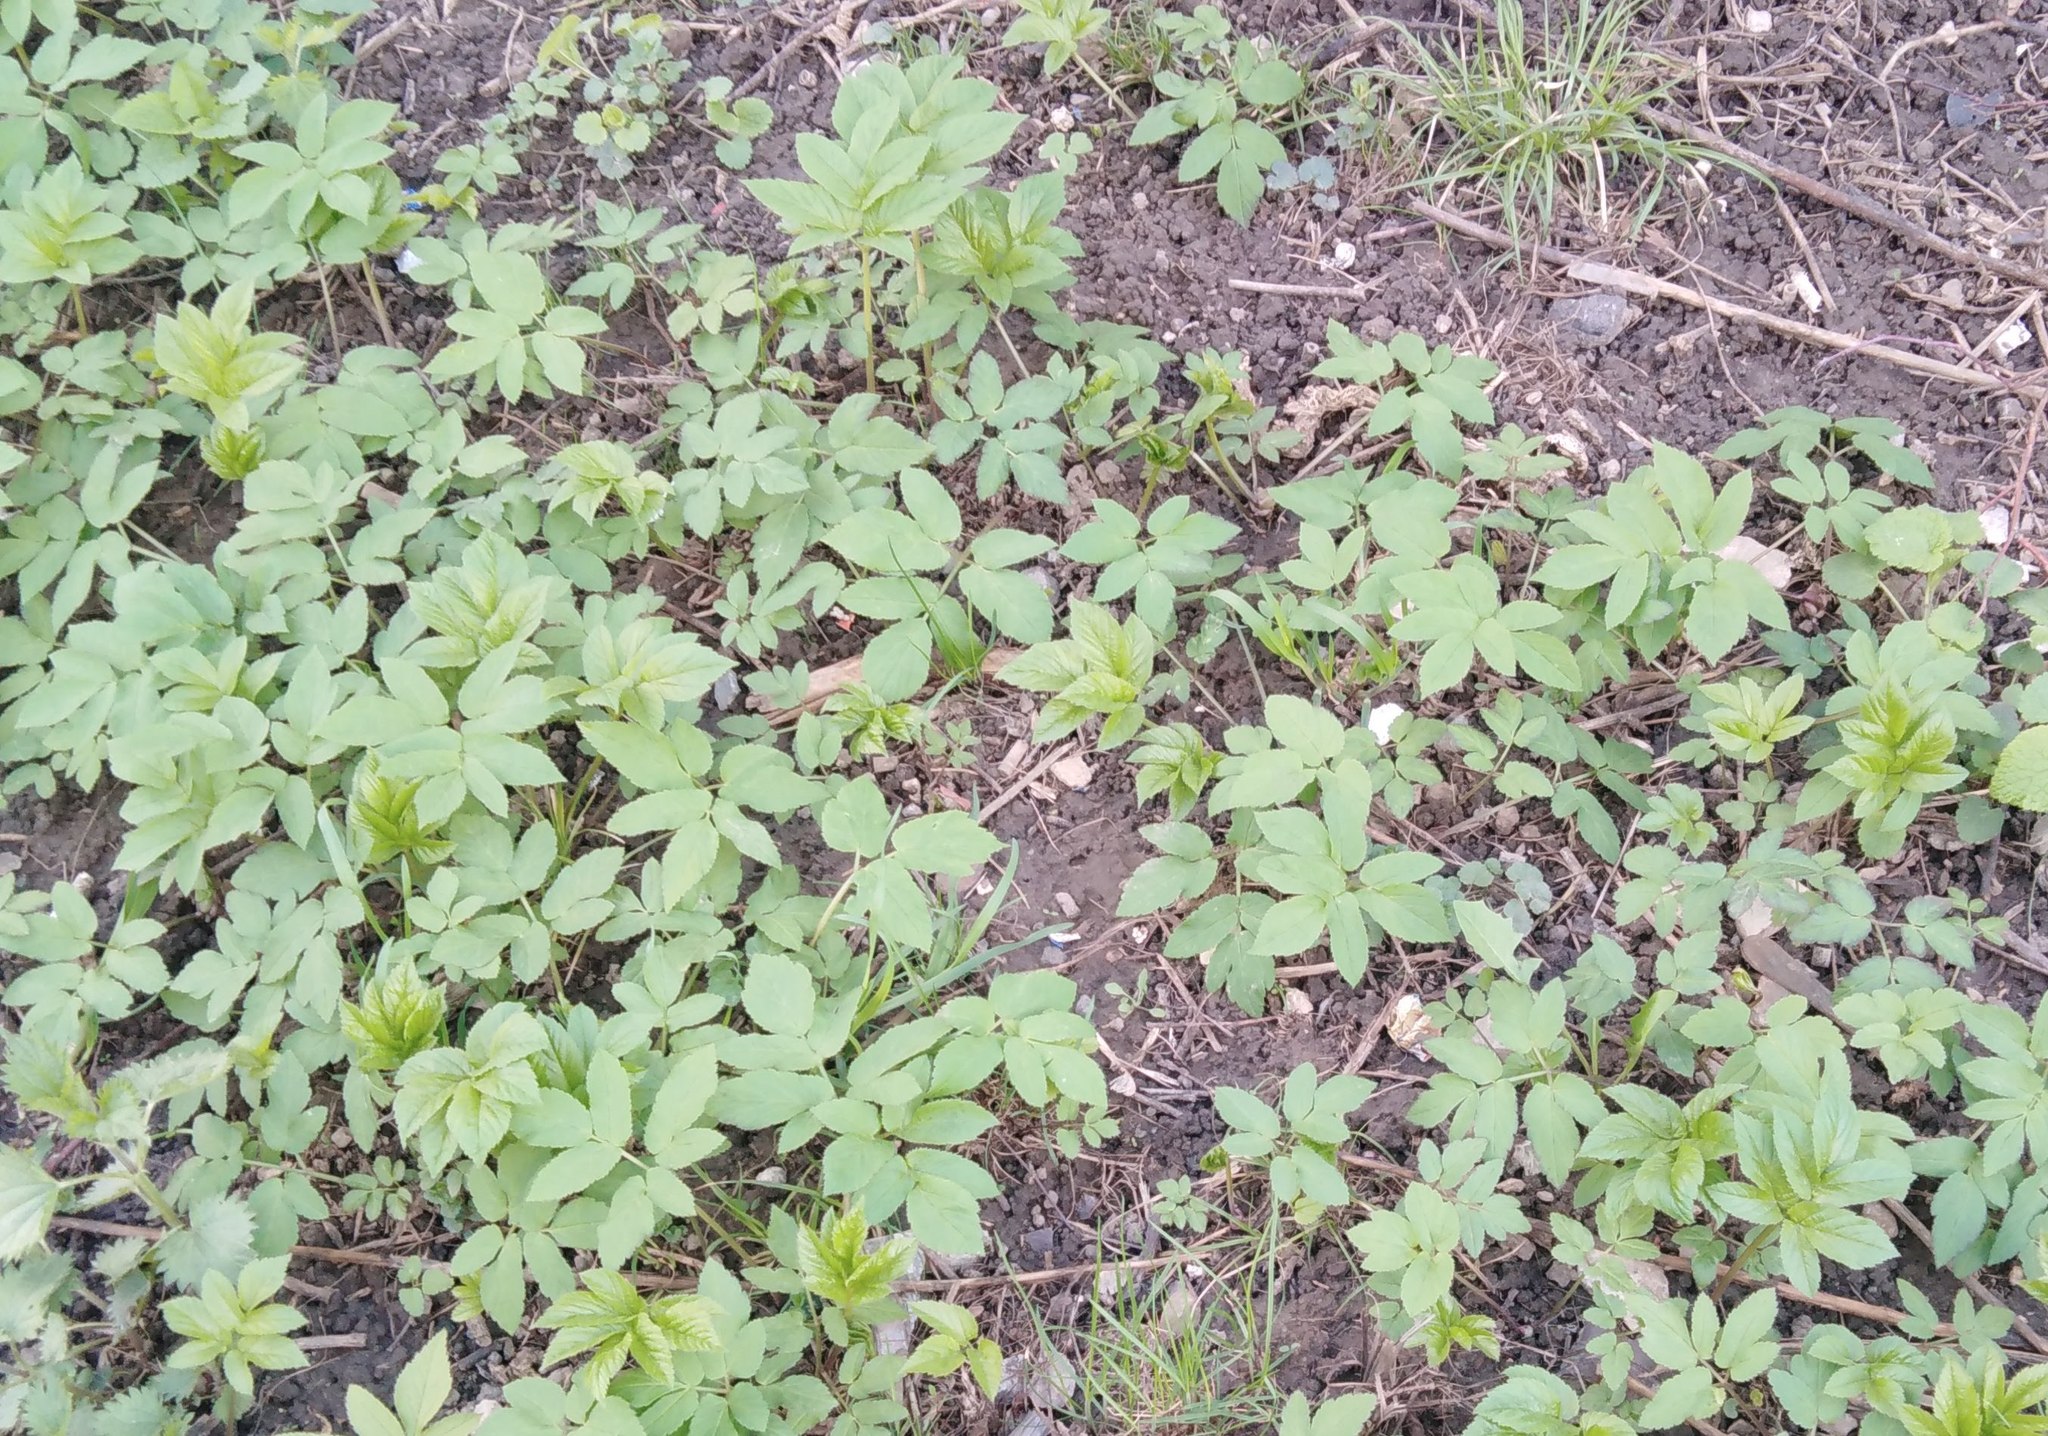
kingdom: Plantae
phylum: Tracheophyta
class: Magnoliopsida
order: Apiales
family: Apiaceae
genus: Aegopodium
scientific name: Aegopodium podagraria
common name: Ground-elder
